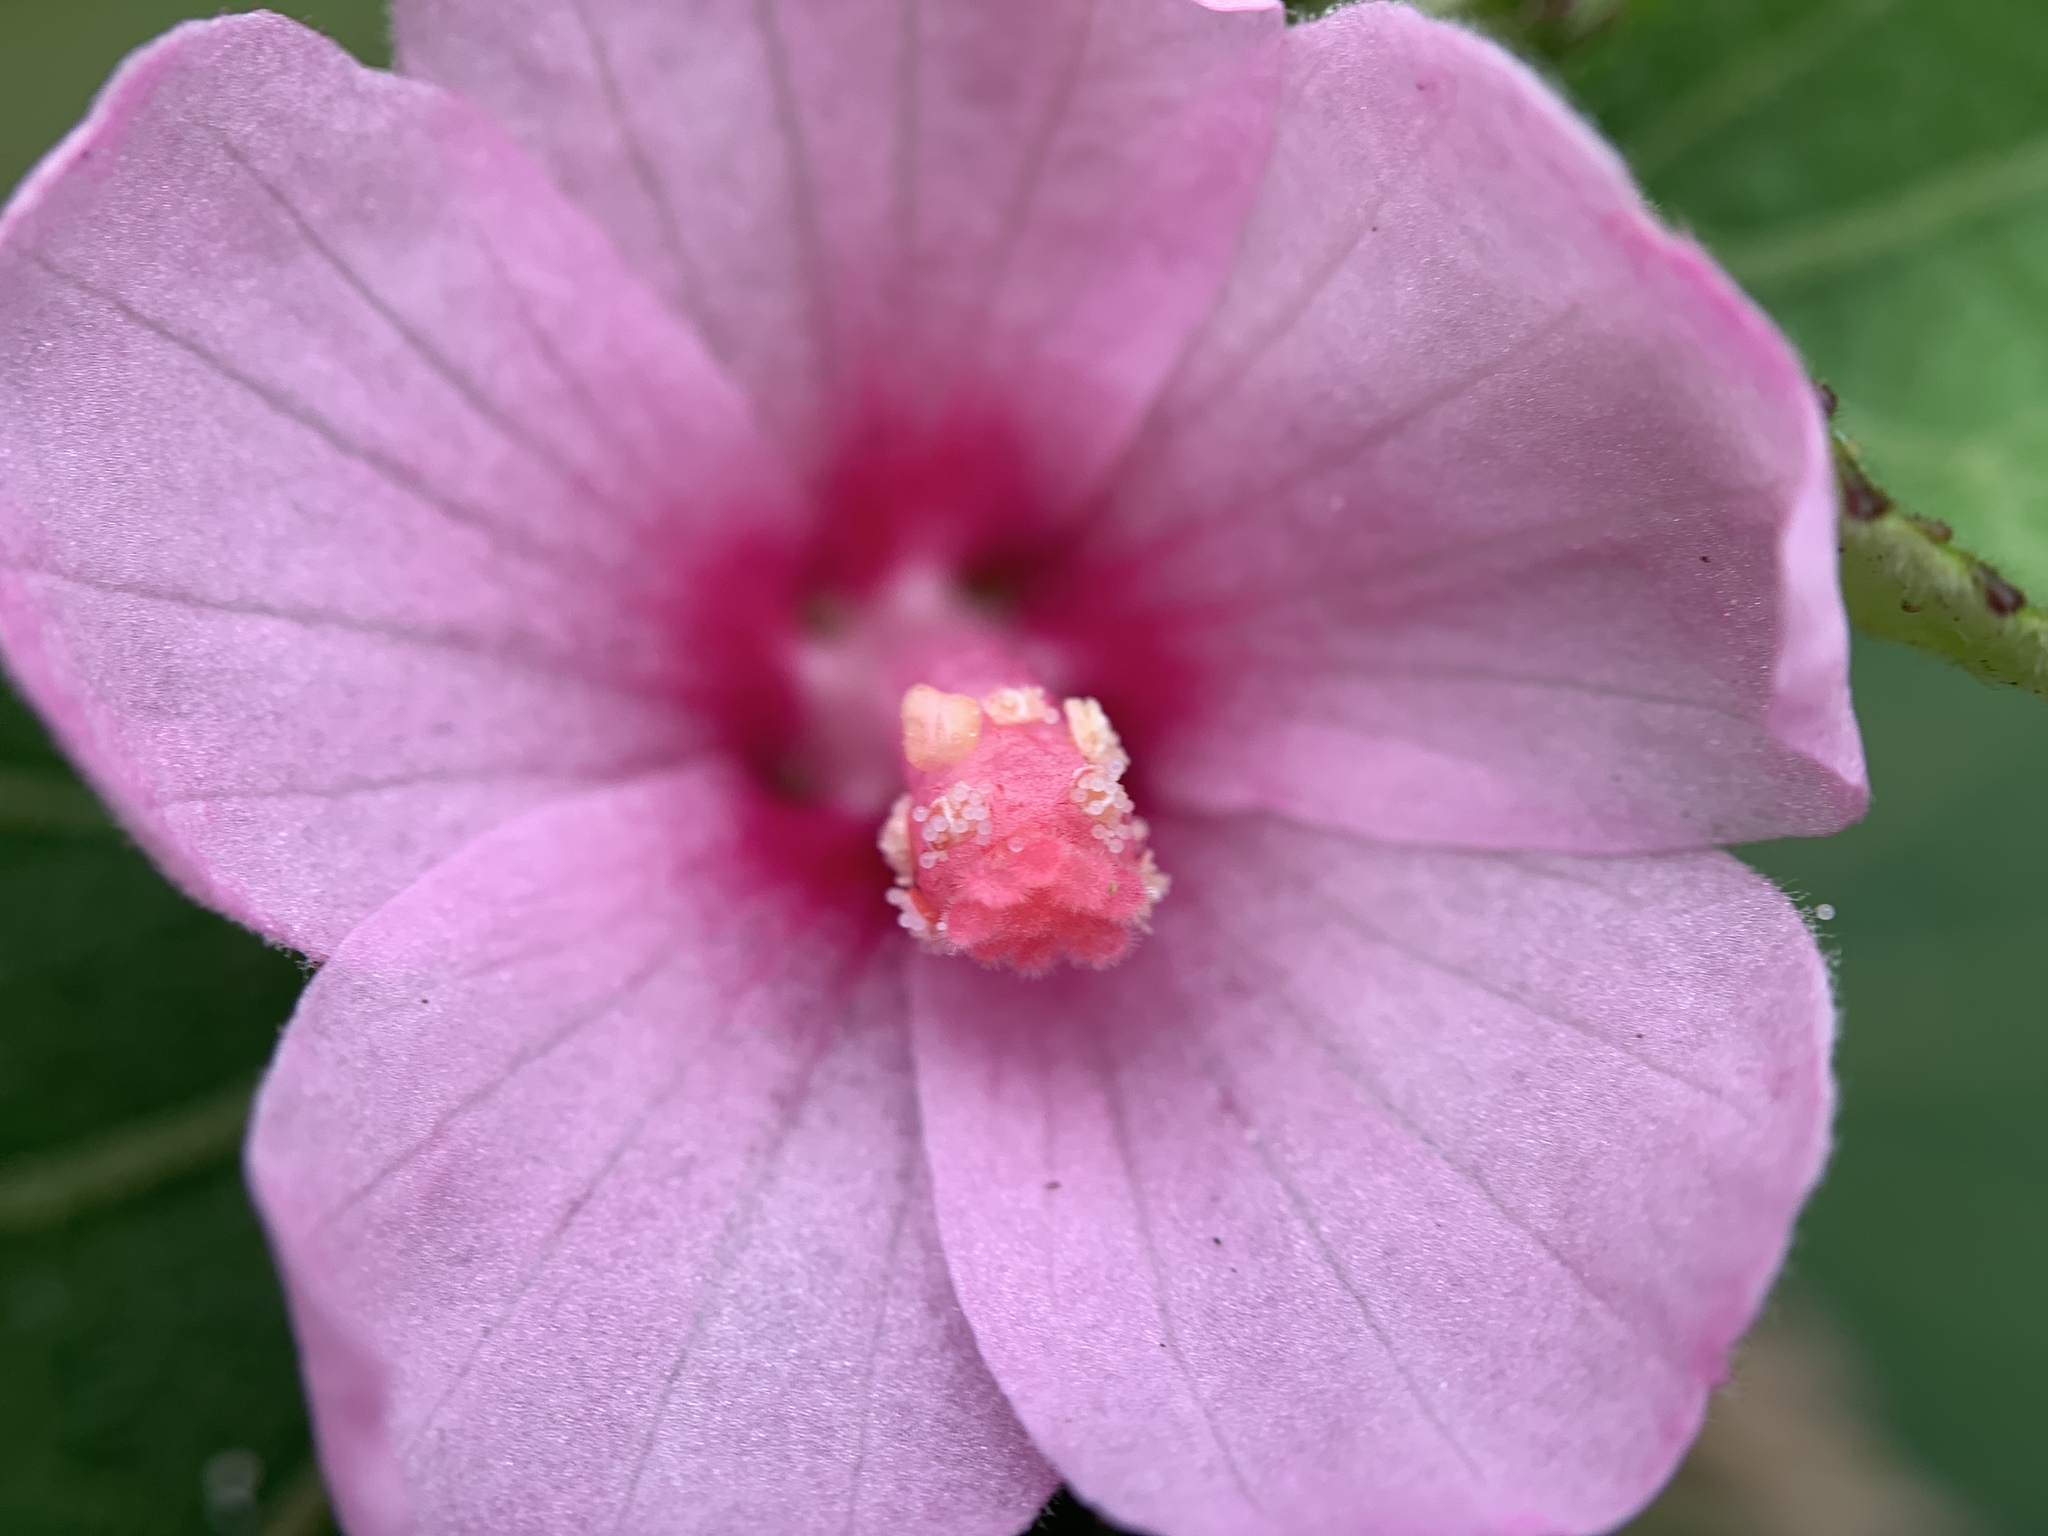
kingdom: Plantae
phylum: Tracheophyta
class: Magnoliopsida
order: Malvales
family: Malvaceae
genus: Urena
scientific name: Urena lobata
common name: Caesarweed
